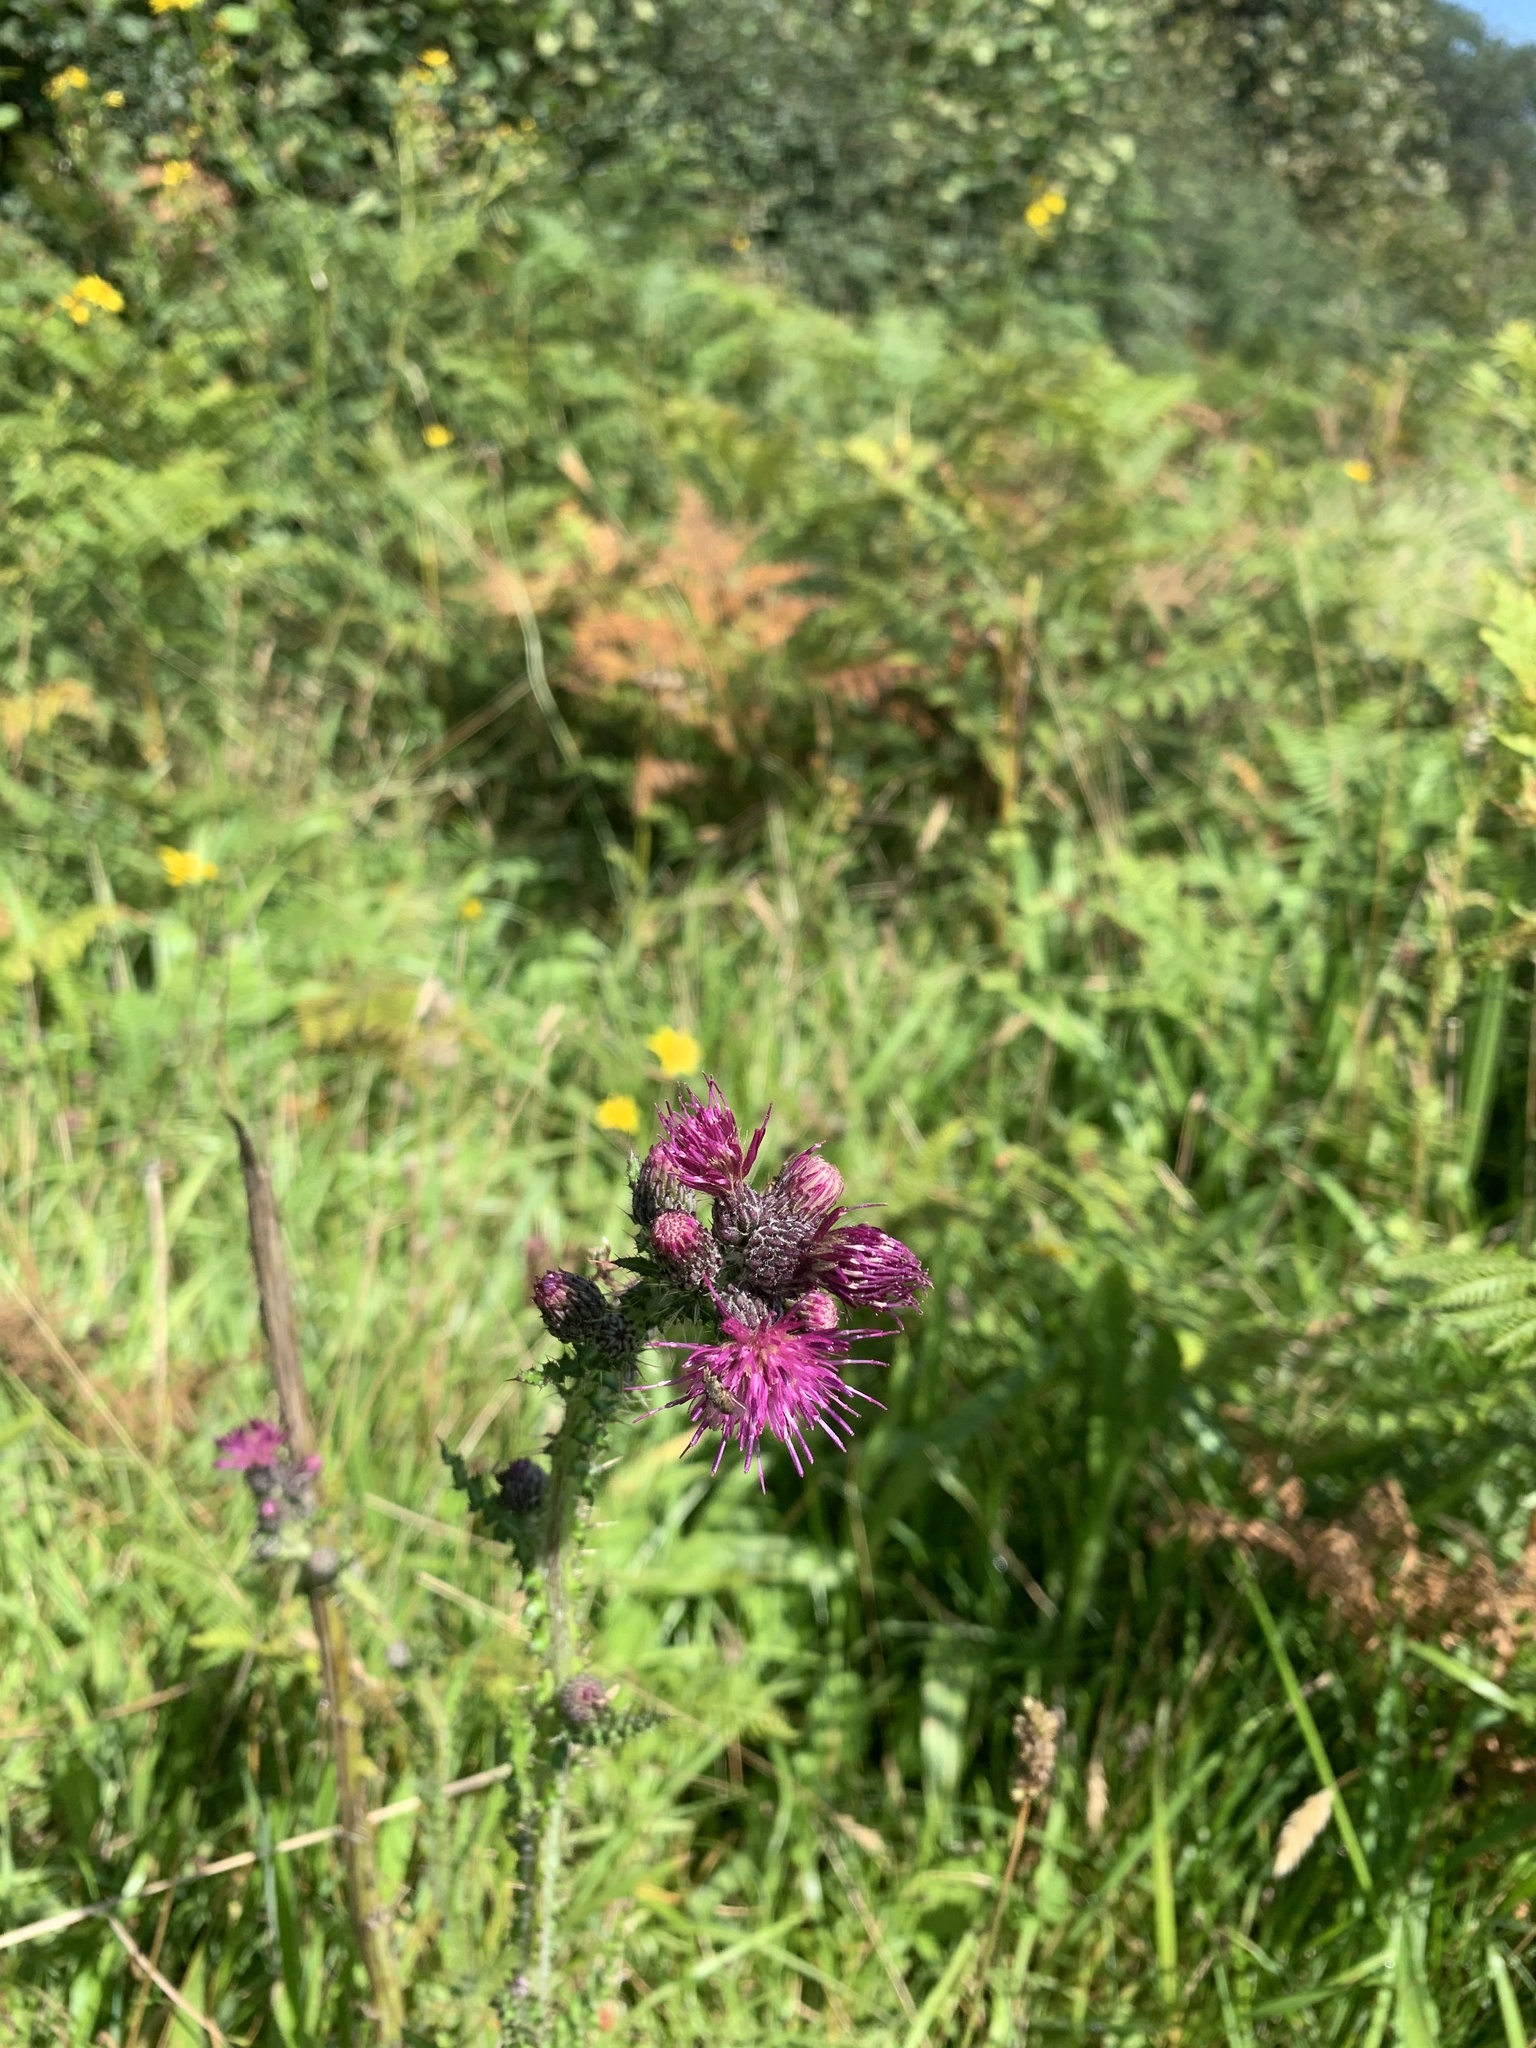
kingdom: Plantae
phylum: Tracheophyta
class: Magnoliopsida
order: Asterales
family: Asteraceae
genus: Cirsium
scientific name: Cirsium palustre
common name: Marsh thistle
